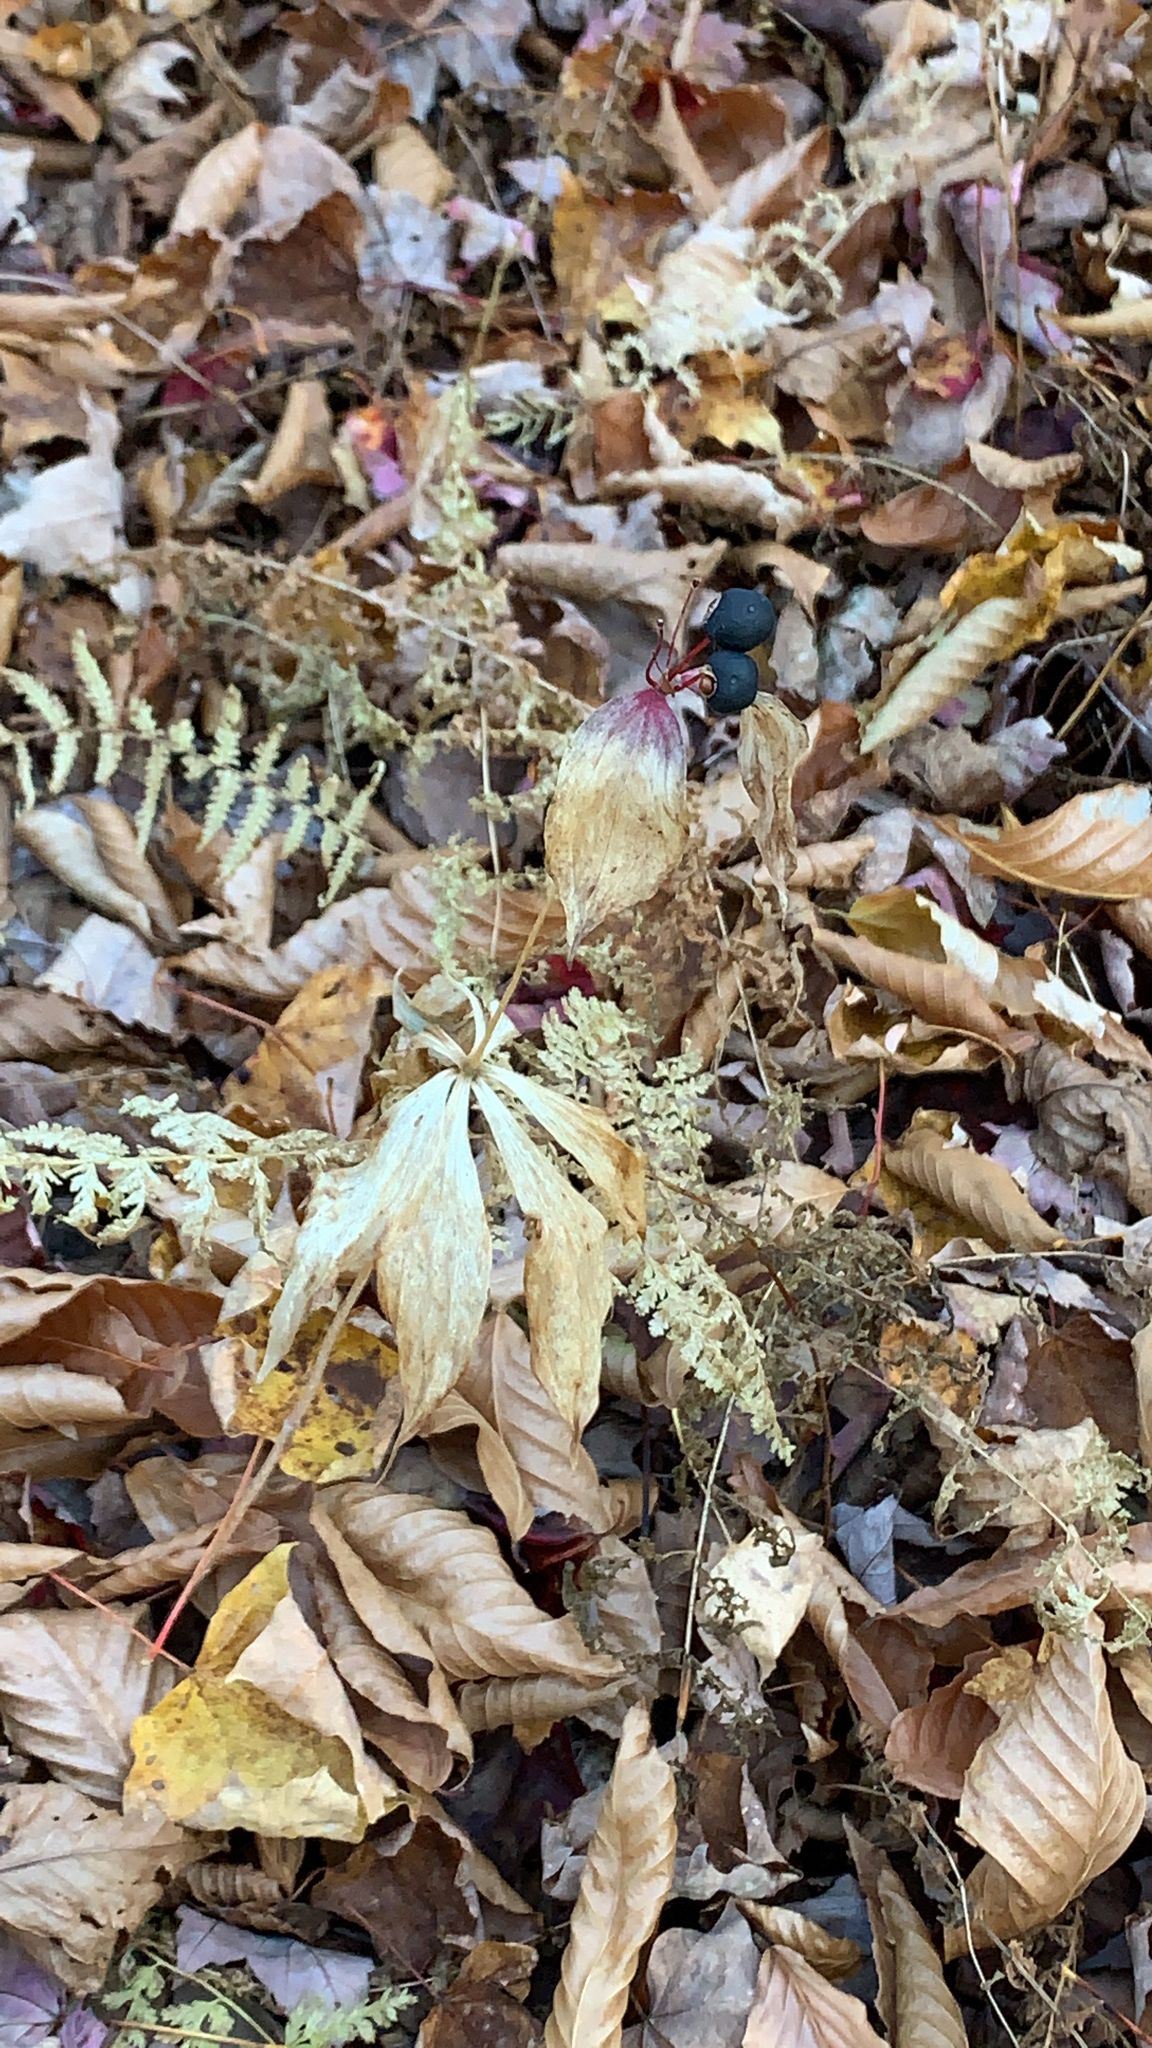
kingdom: Plantae
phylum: Tracheophyta
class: Liliopsida
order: Liliales
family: Liliaceae
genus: Medeola
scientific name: Medeola virginiana
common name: Indian cucumber-root
